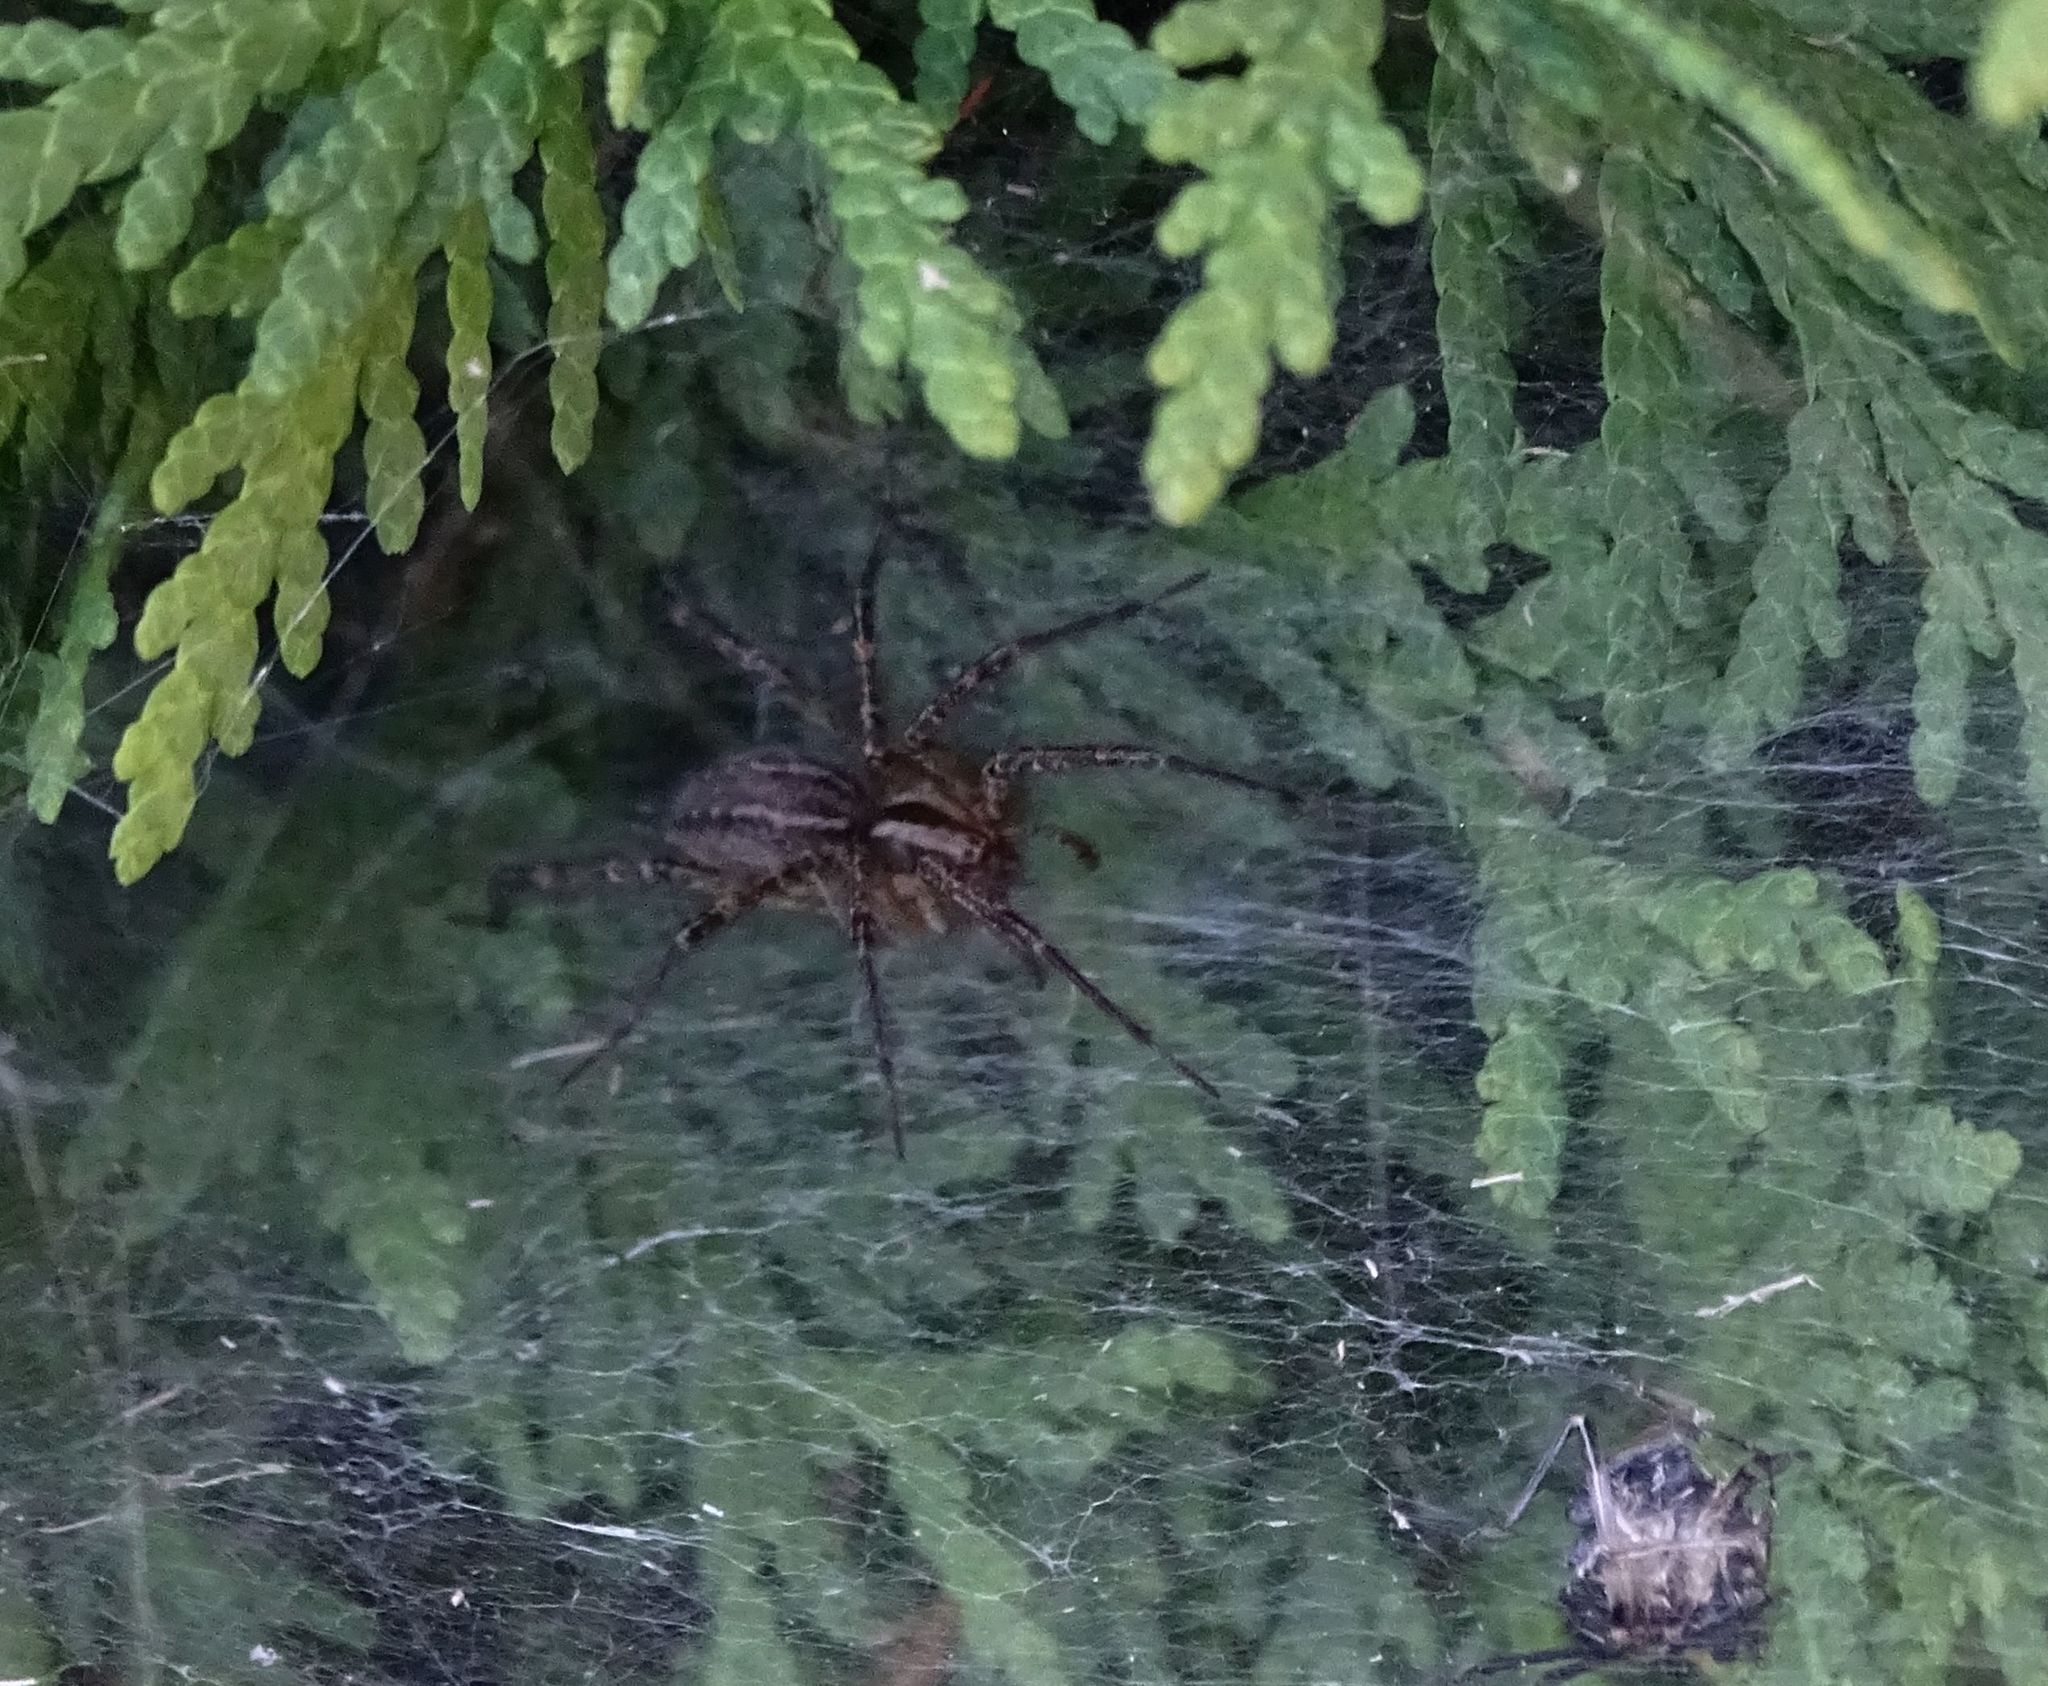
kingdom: Animalia
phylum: Arthropoda
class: Arachnida
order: Araneae
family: Agelenidae
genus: Agelenopsis
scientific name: Agelenopsis
